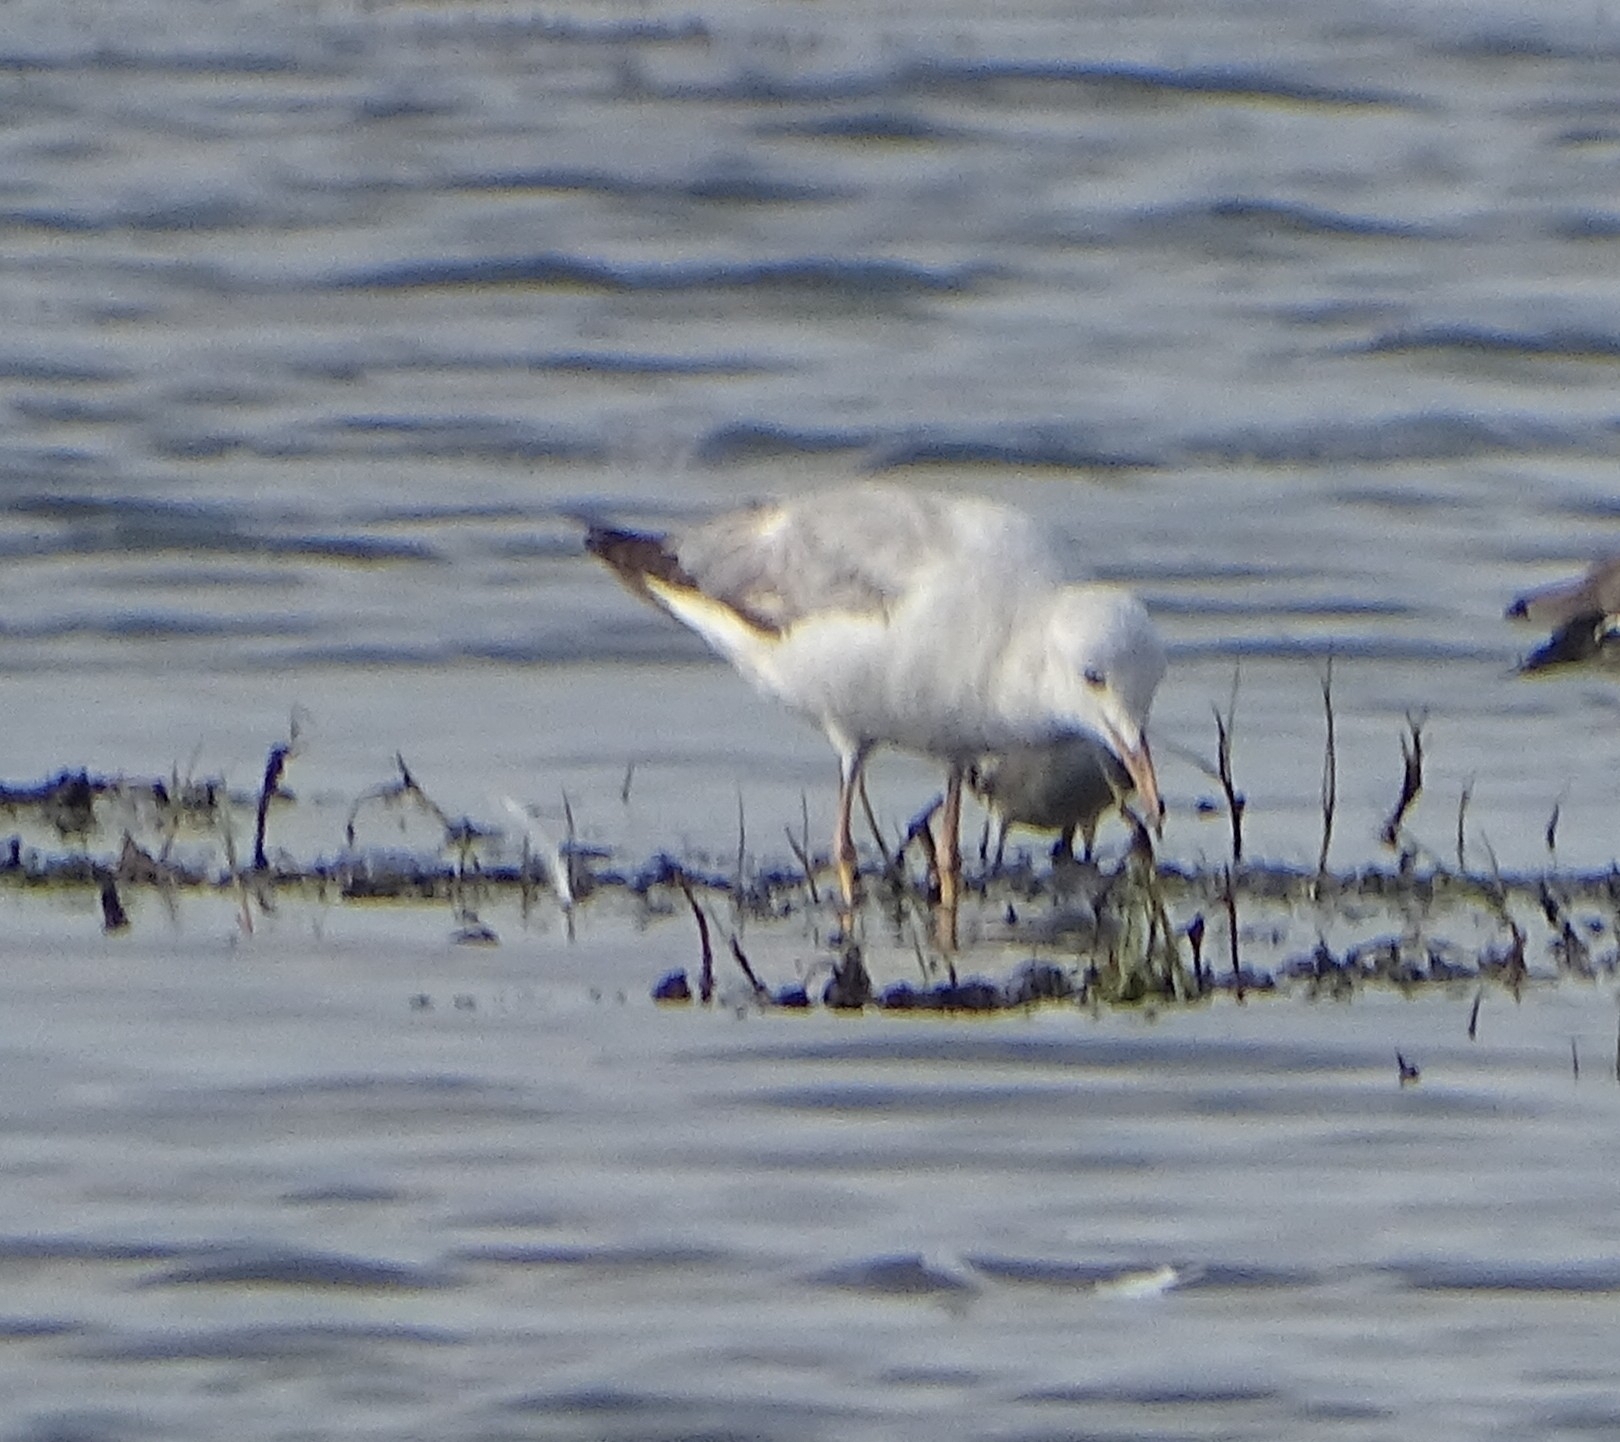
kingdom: Animalia
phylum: Chordata
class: Aves
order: Charadriiformes
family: Laridae
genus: Chroicocephalus
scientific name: Chroicocephalus genei
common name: Slender-billed gull
